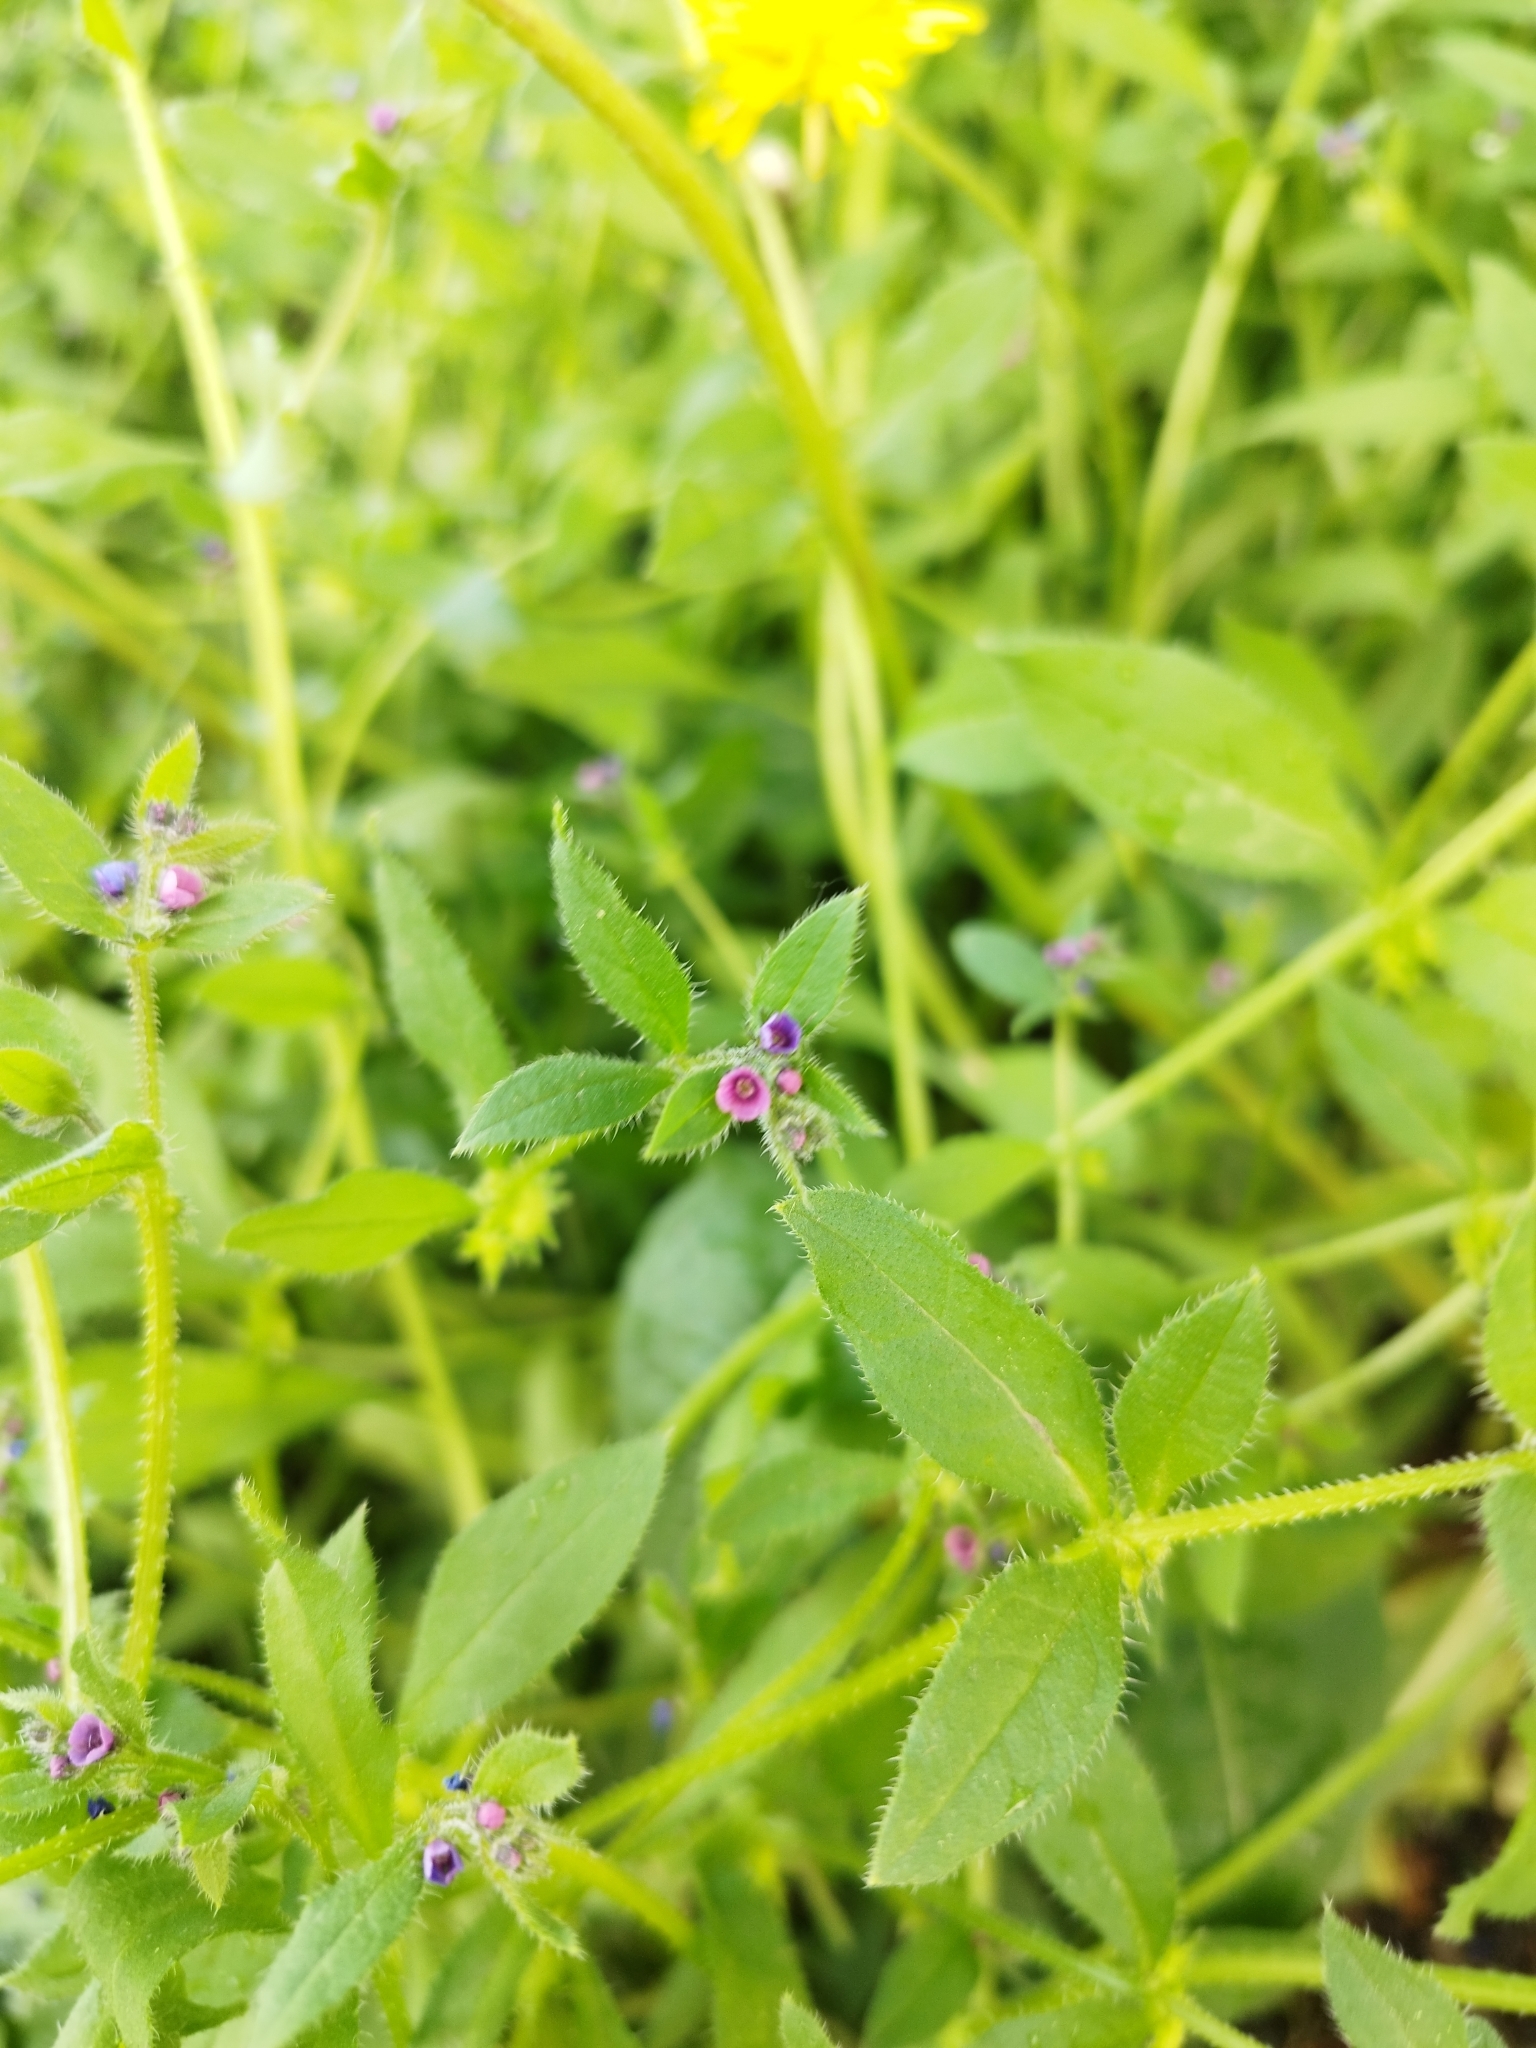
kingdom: Plantae
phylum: Tracheophyta
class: Magnoliopsida
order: Boraginales
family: Boraginaceae
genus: Asperugo
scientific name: Asperugo procumbens
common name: Madwort
